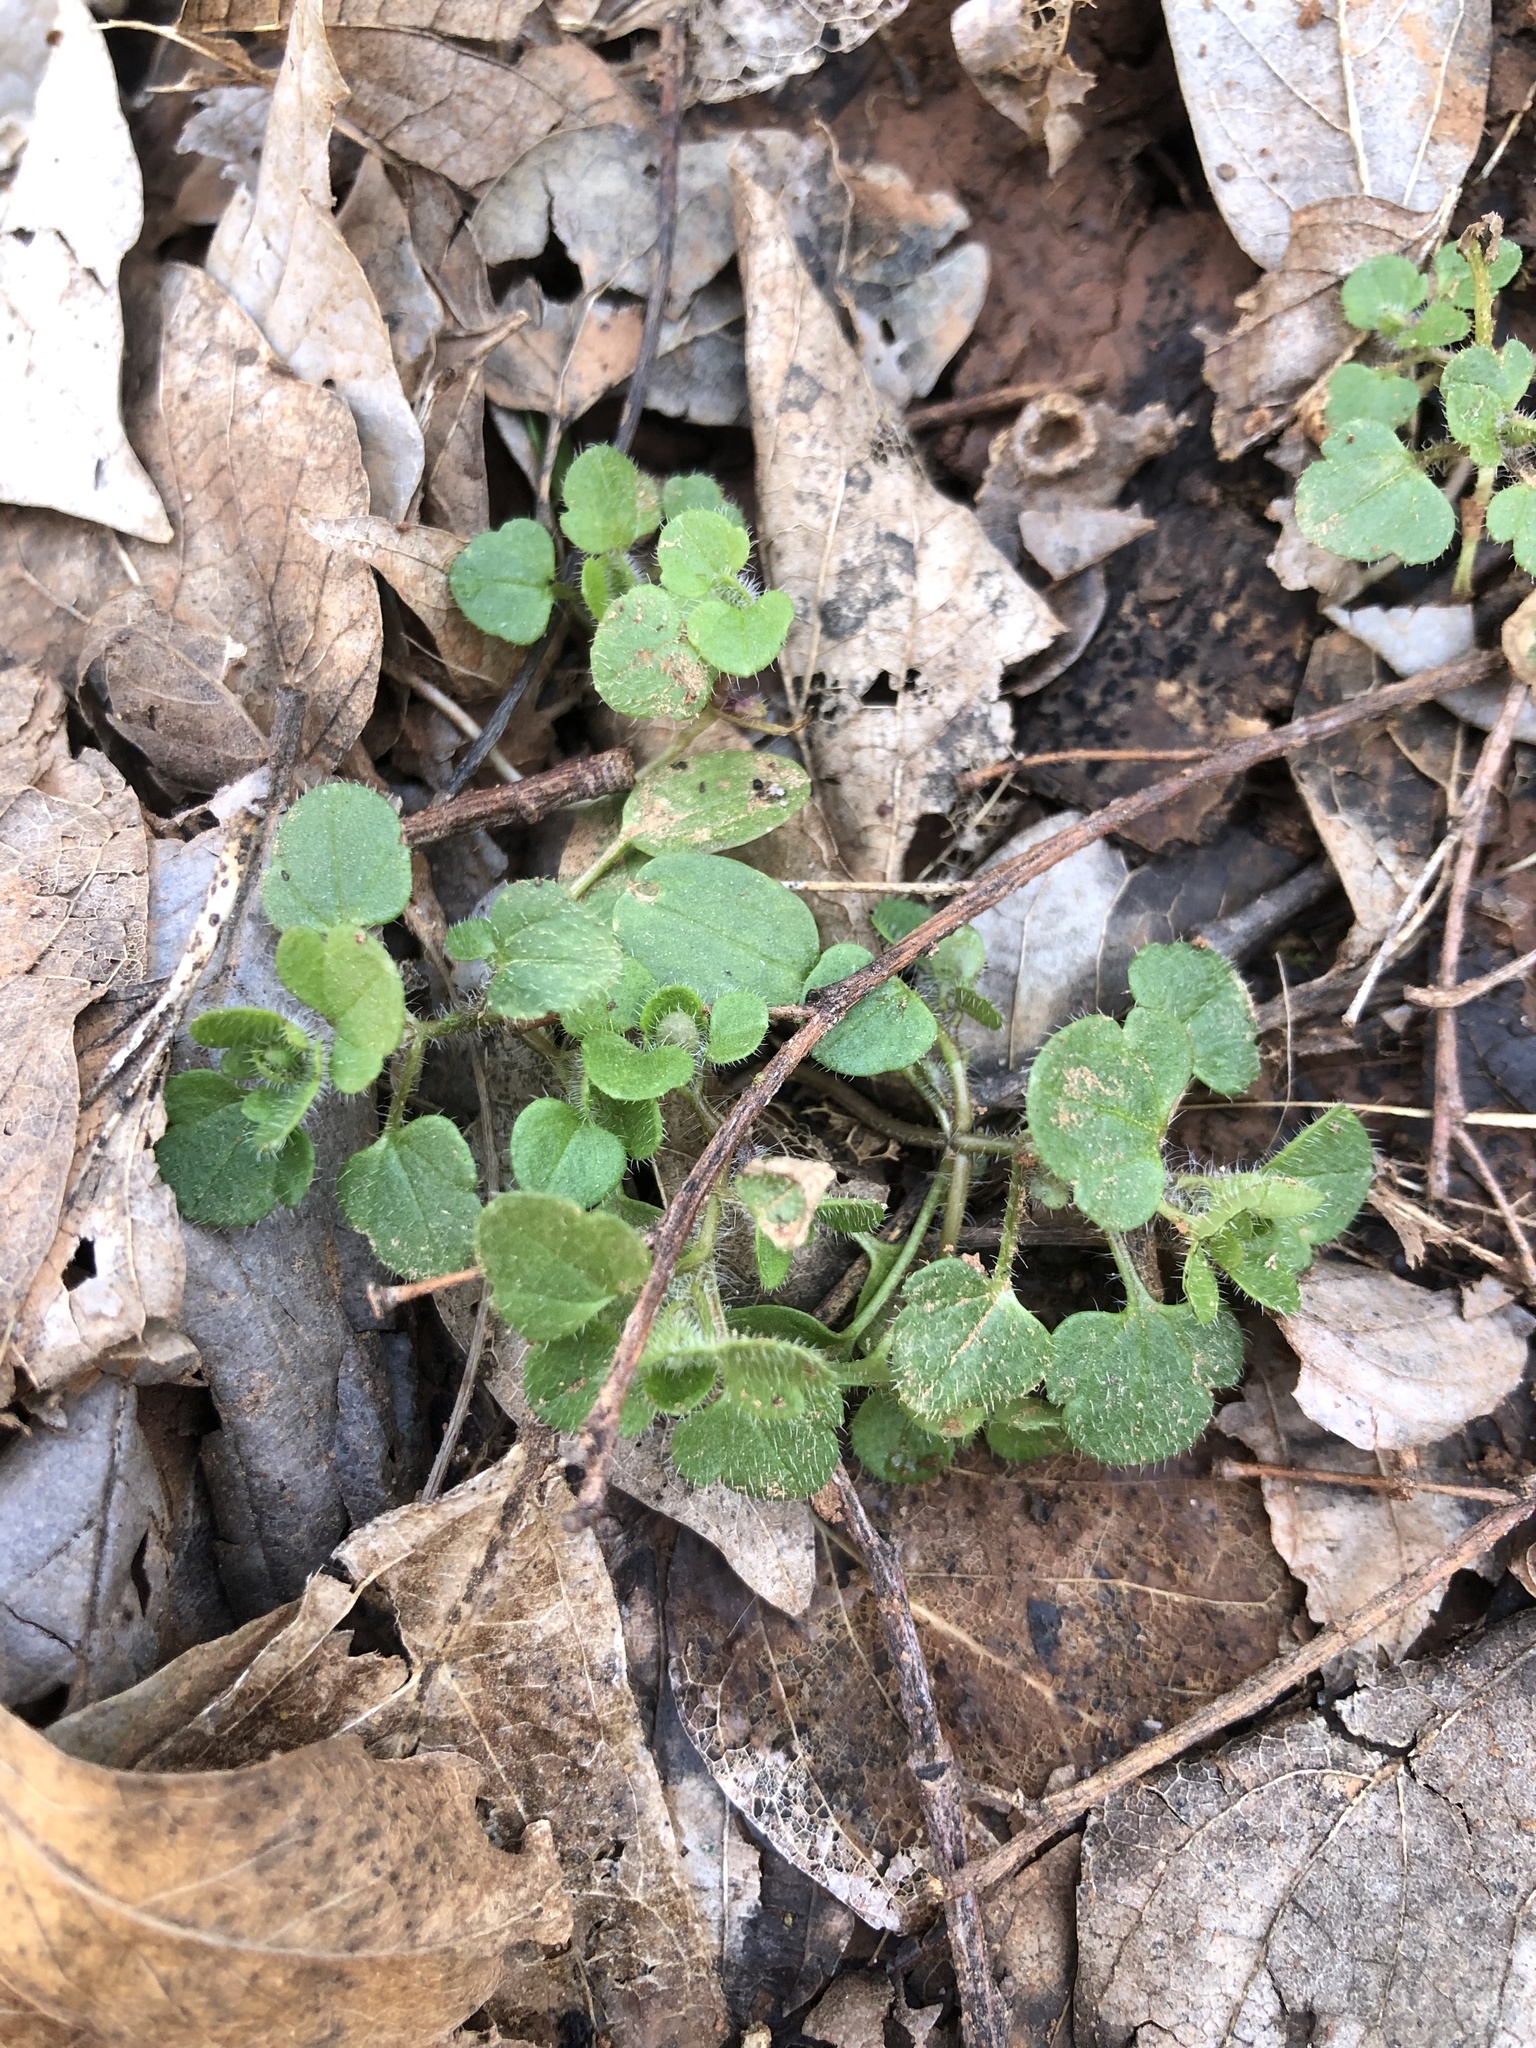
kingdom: Plantae
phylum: Tracheophyta
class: Magnoliopsida
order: Lamiales
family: Plantaginaceae
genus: Veronica
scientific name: Veronica hederifolia
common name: Ivy-leaved speedwell
